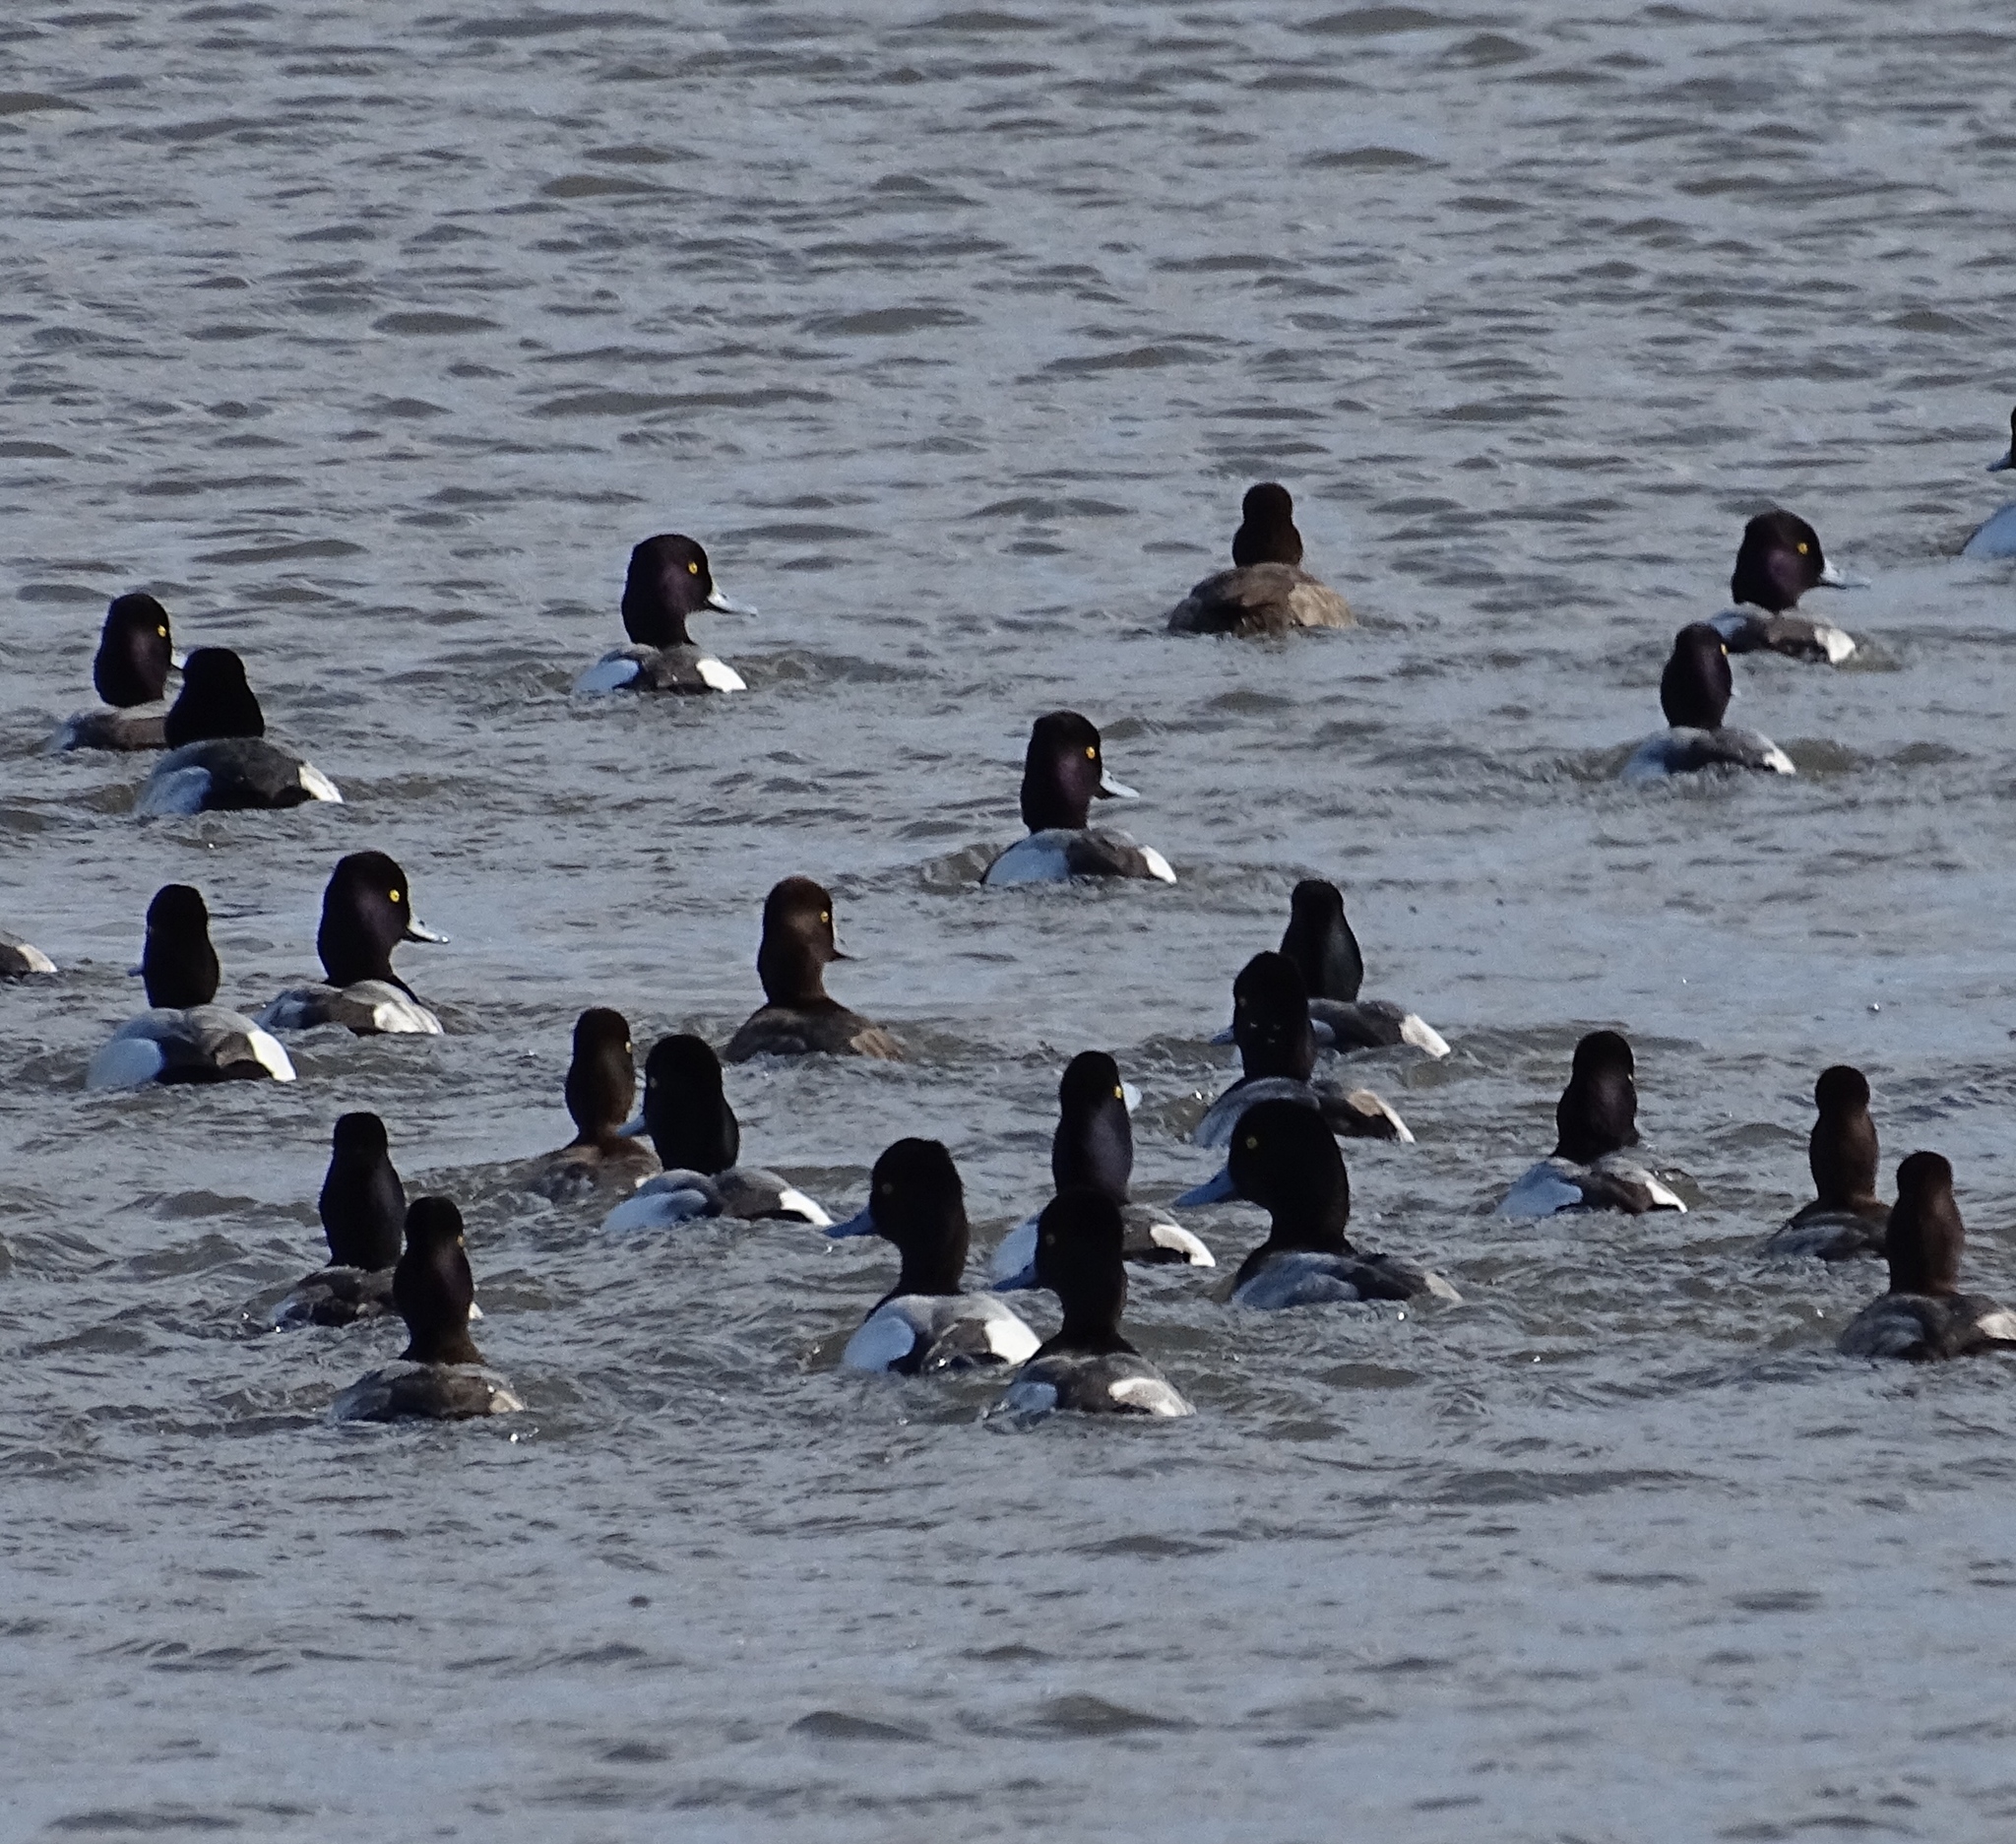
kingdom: Animalia
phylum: Chordata
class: Aves
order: Anseriformes
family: Anatidae
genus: Aythya
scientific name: Aythya affinis
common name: Lesser scaup
